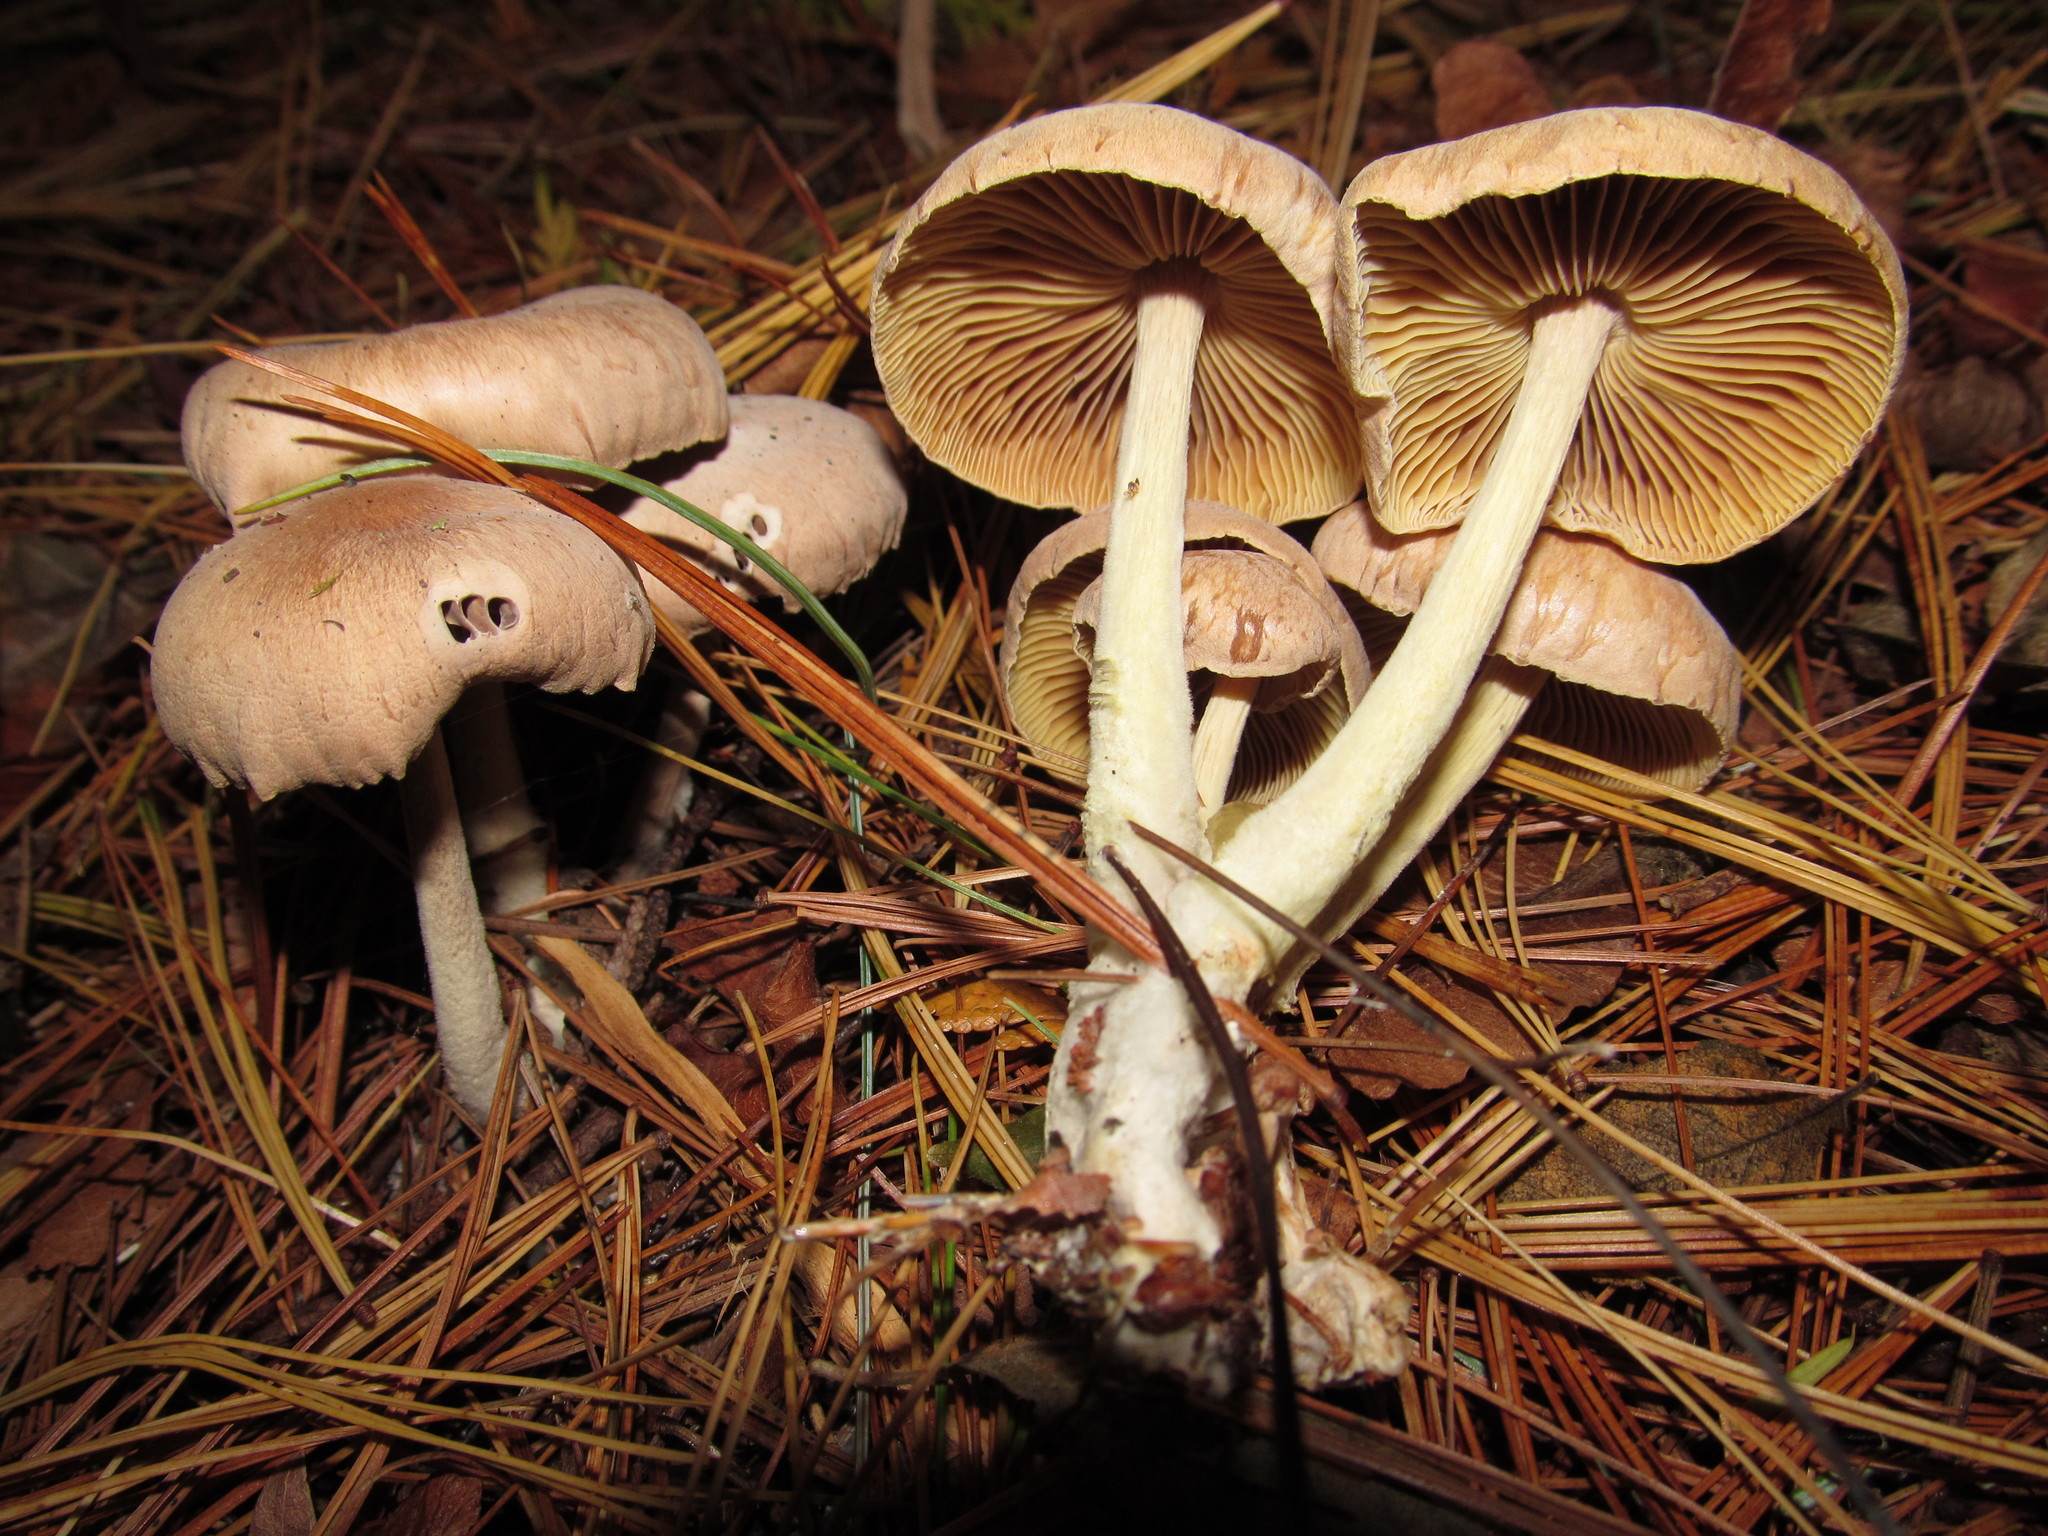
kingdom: Fungi
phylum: Basidiomycota
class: Agaricomycetes
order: Agaricales
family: Omphalotaceae
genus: Collybiopsis
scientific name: Collybiopsis peronata
